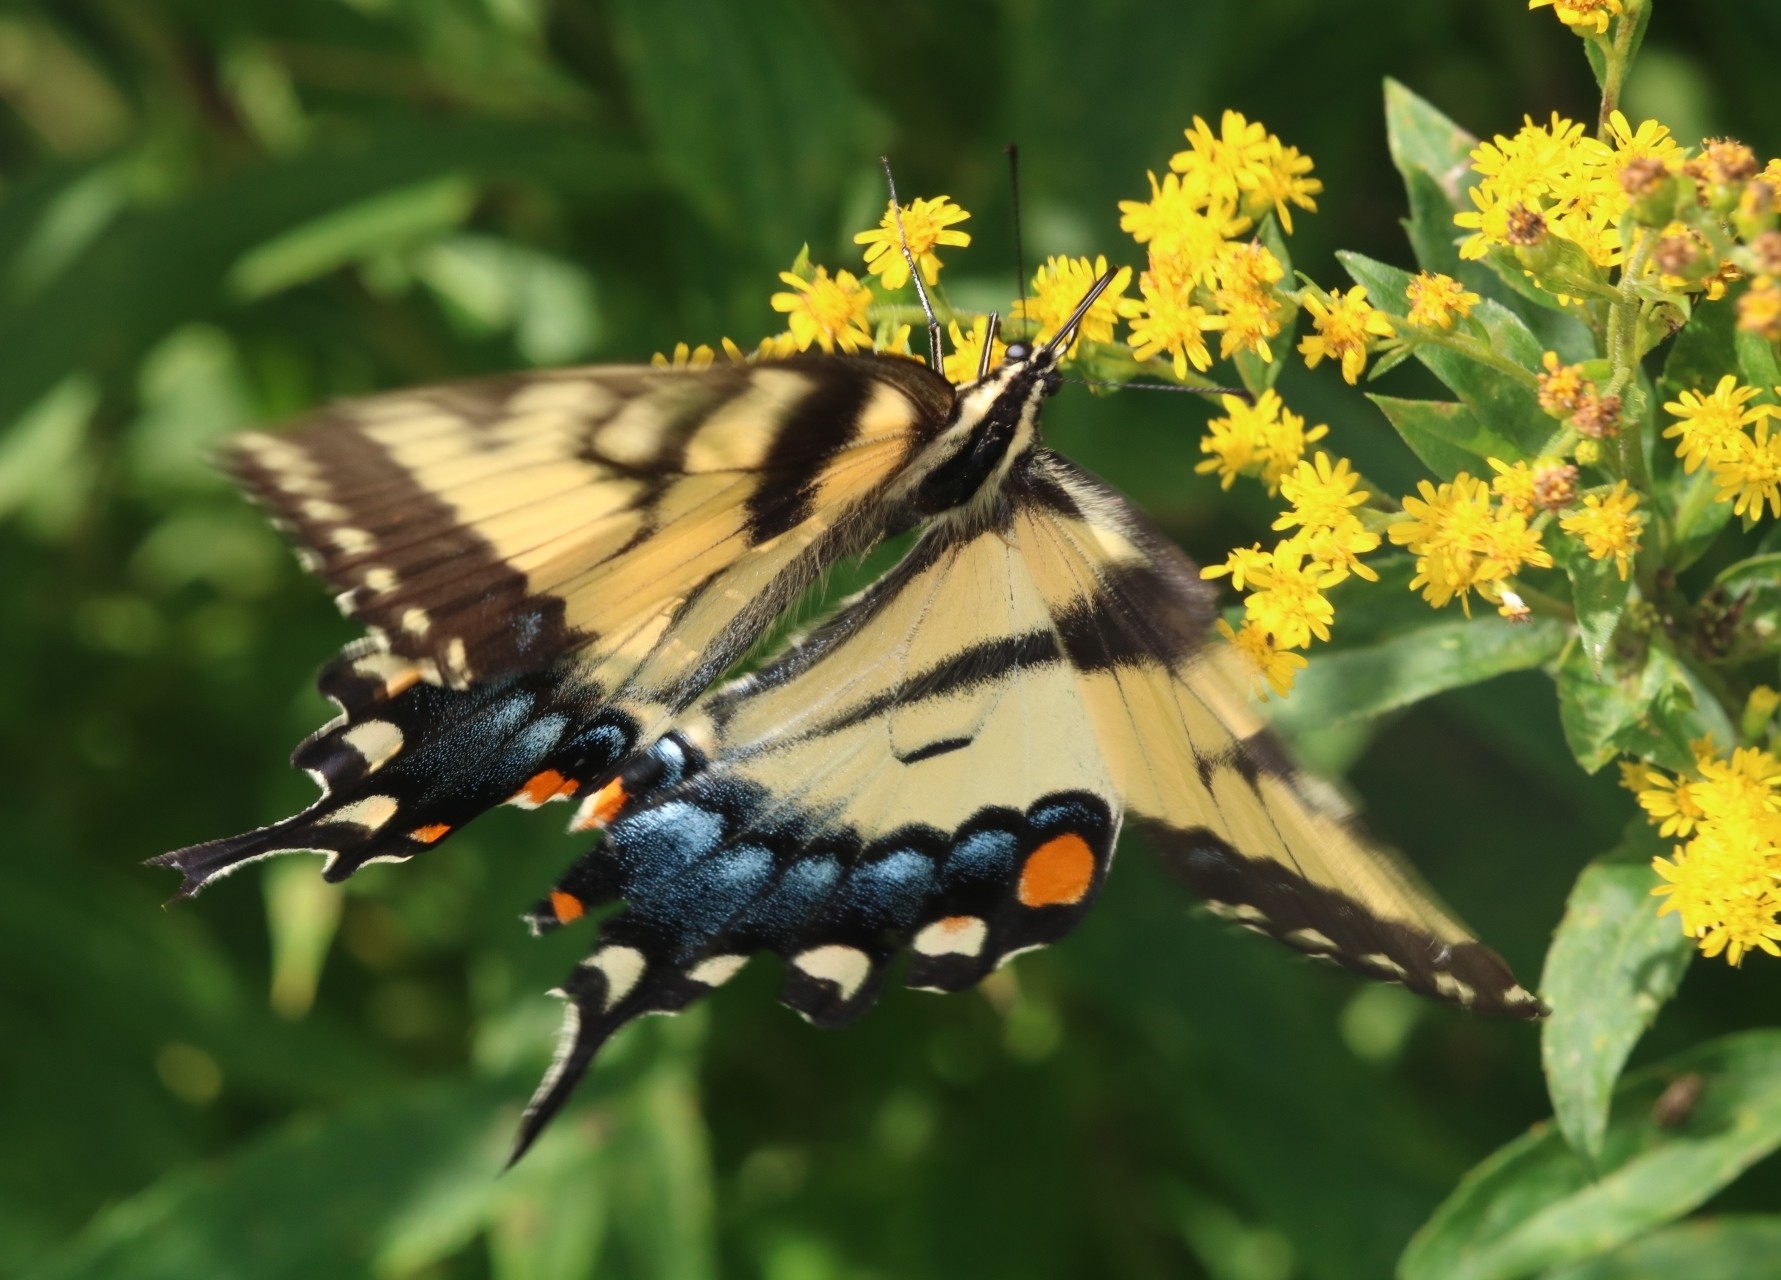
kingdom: Animalia
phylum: Arthropoda
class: Insecta
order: Lepidoptera
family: Papilionidae
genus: Papilio
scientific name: Papilio glaucus
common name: Tiger swallowtail
